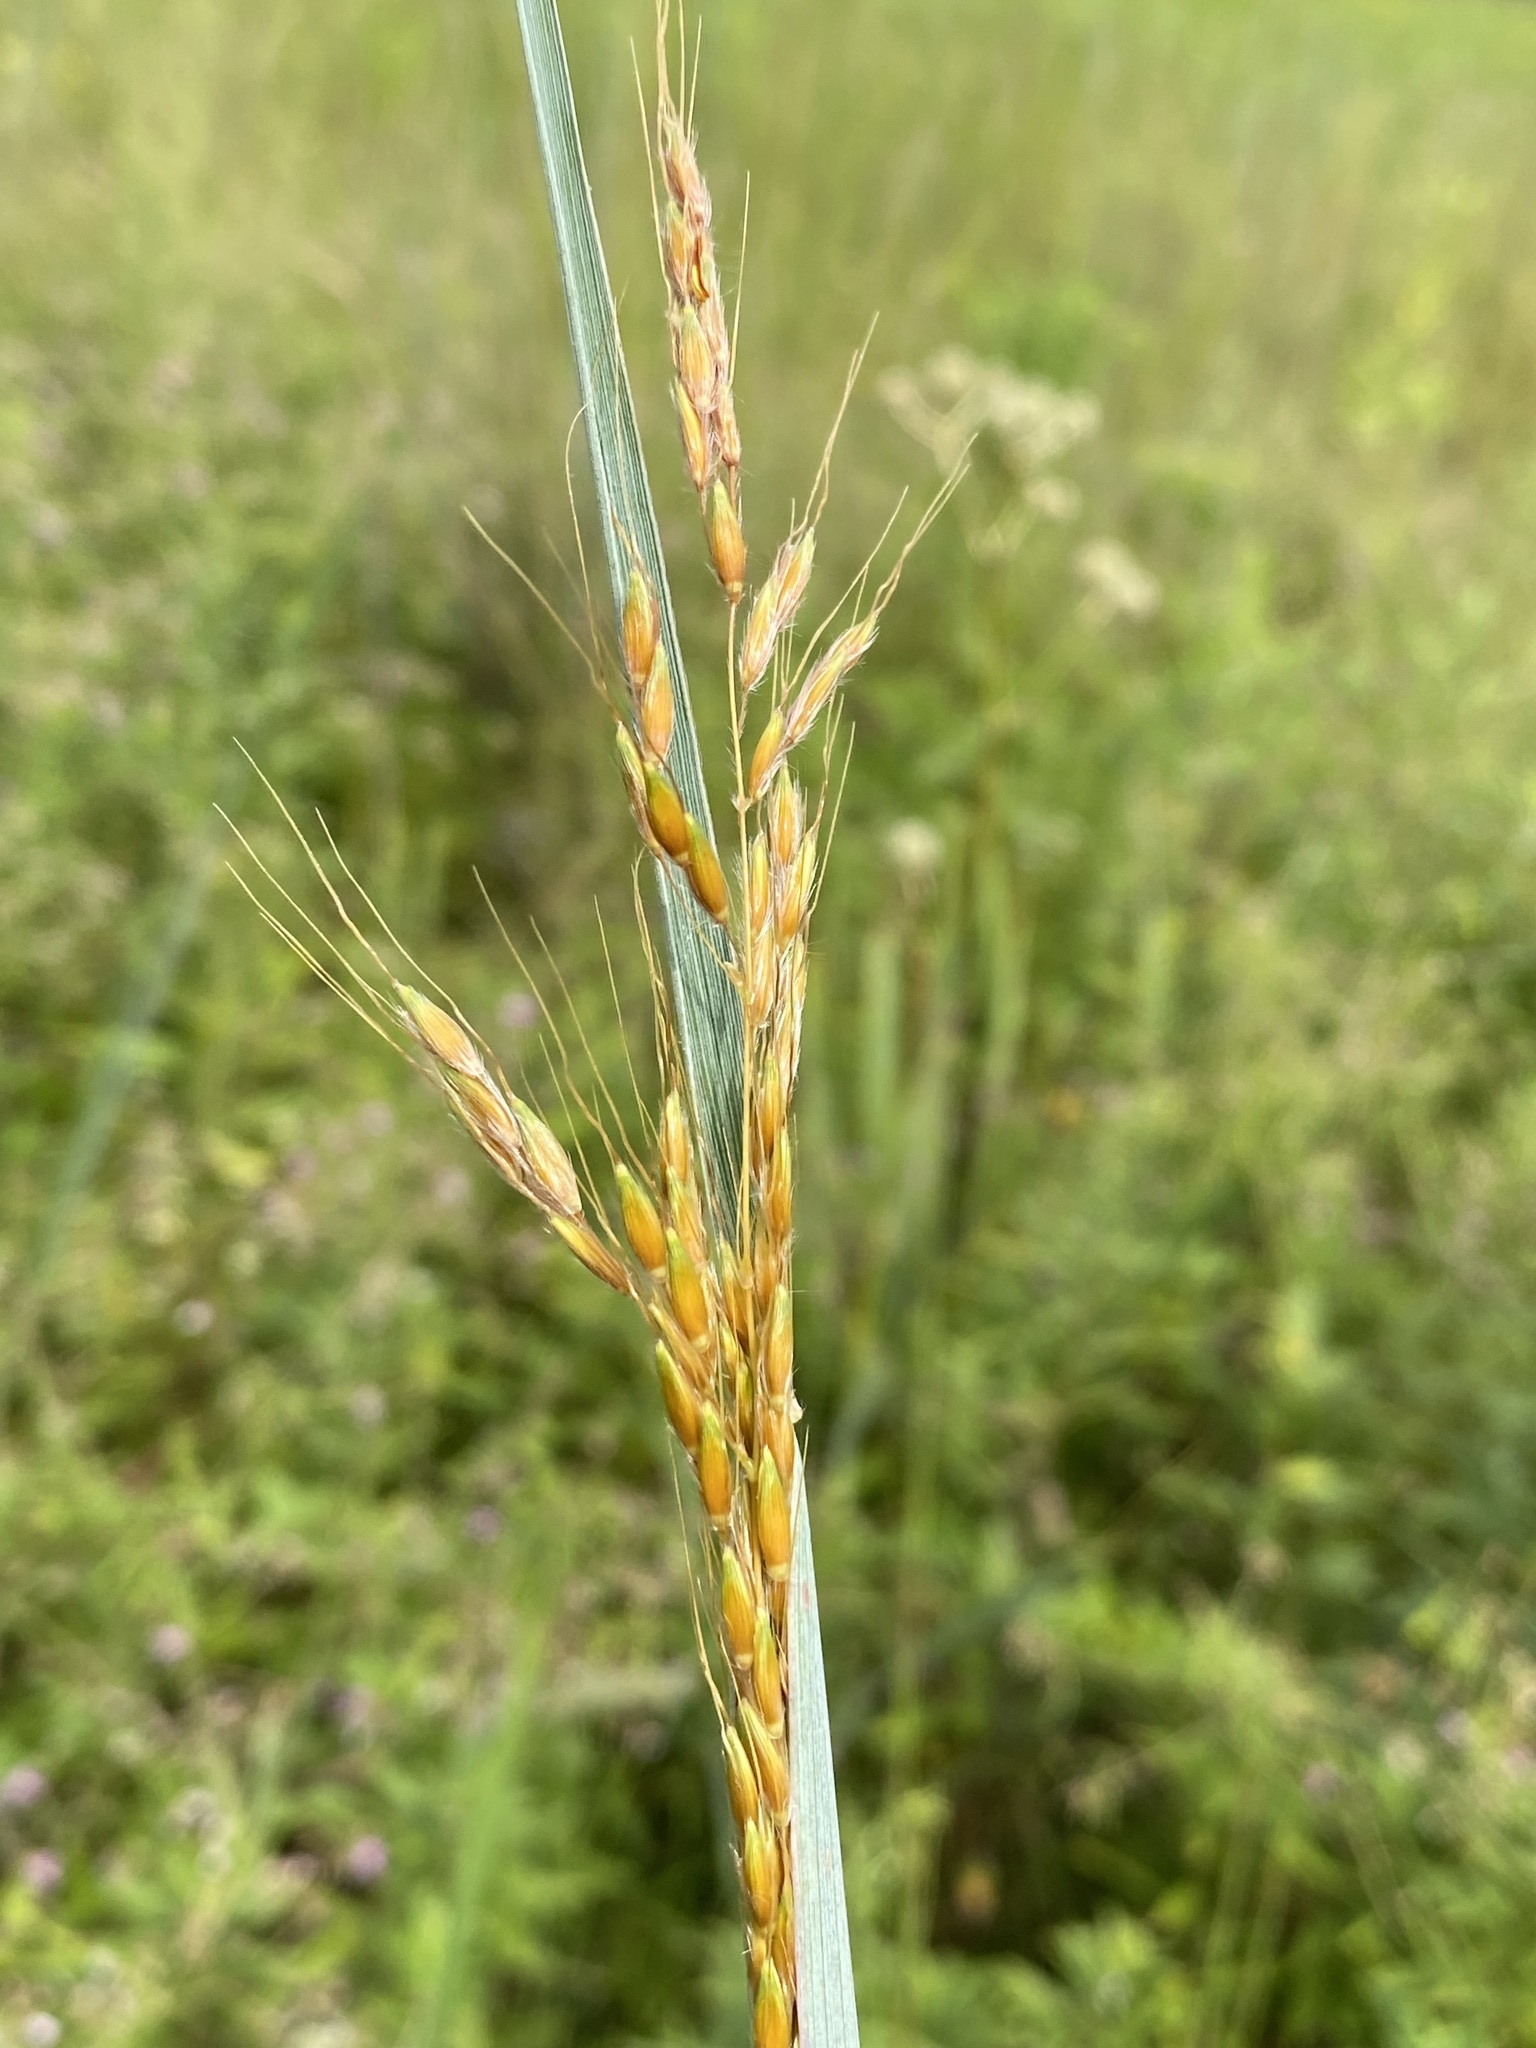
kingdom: Plantae
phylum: Tracheophyta
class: Liliopsida
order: Poales
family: Poaceae
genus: Sorghastrum
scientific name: Sorghastrum nutans
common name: Indian grass
